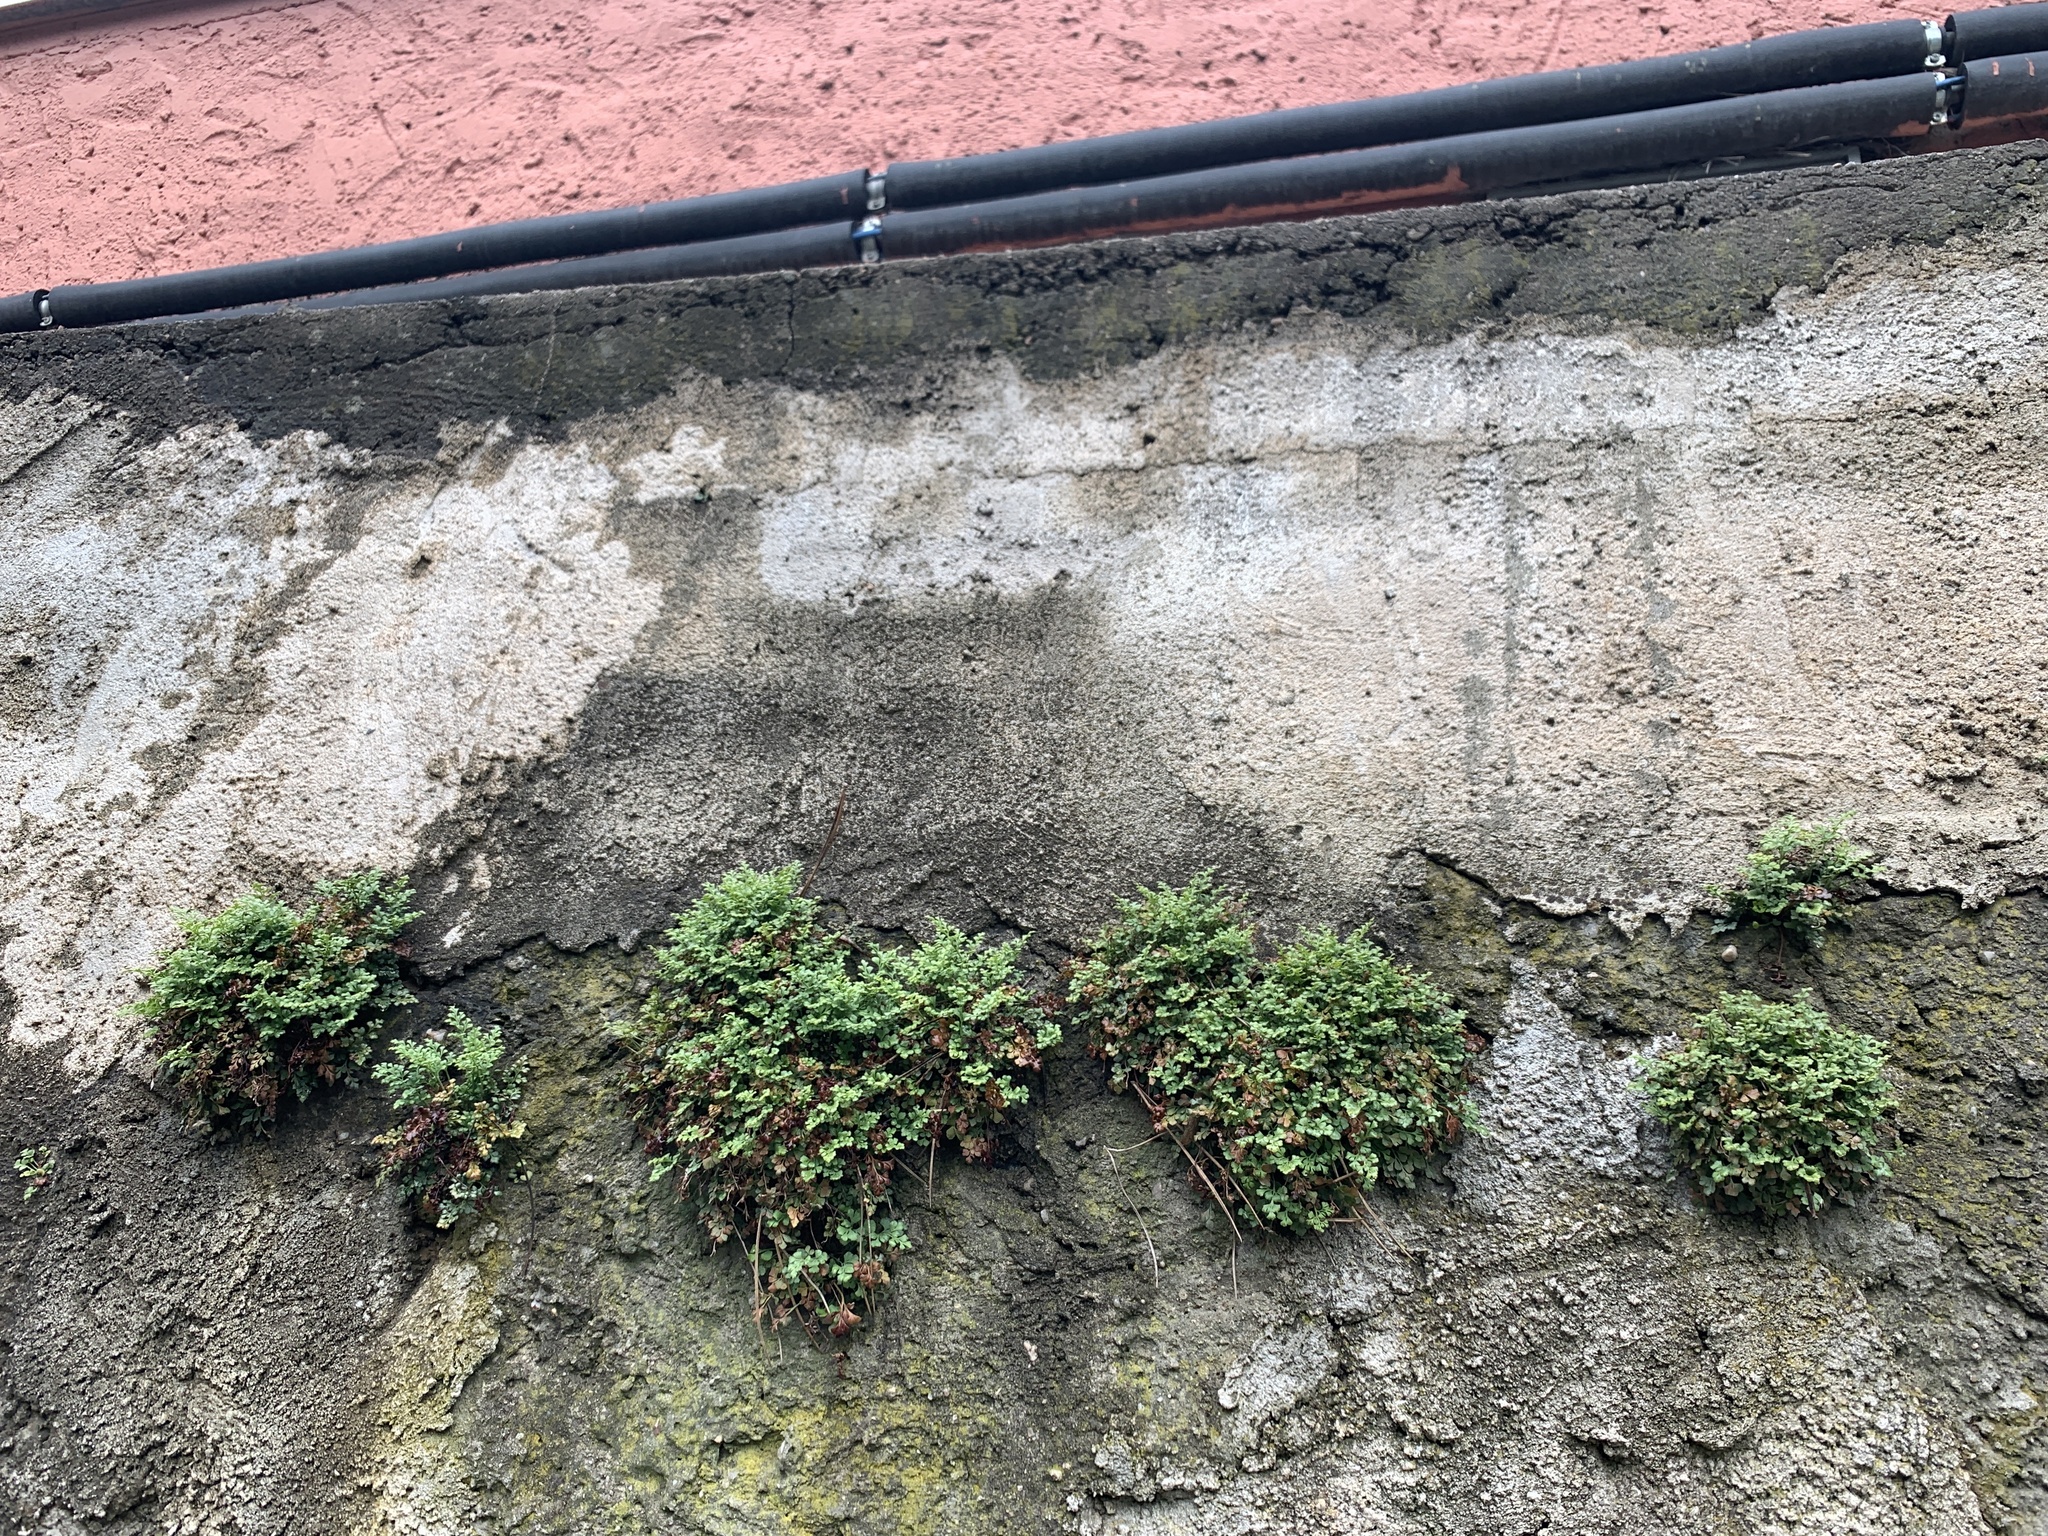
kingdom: Plantae
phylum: Tracheophyta
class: Polypodiopsida
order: Polypodiales
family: Aspleniaceae
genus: Asplenium
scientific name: Asplenium ruta-muraria
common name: Wall-rue
